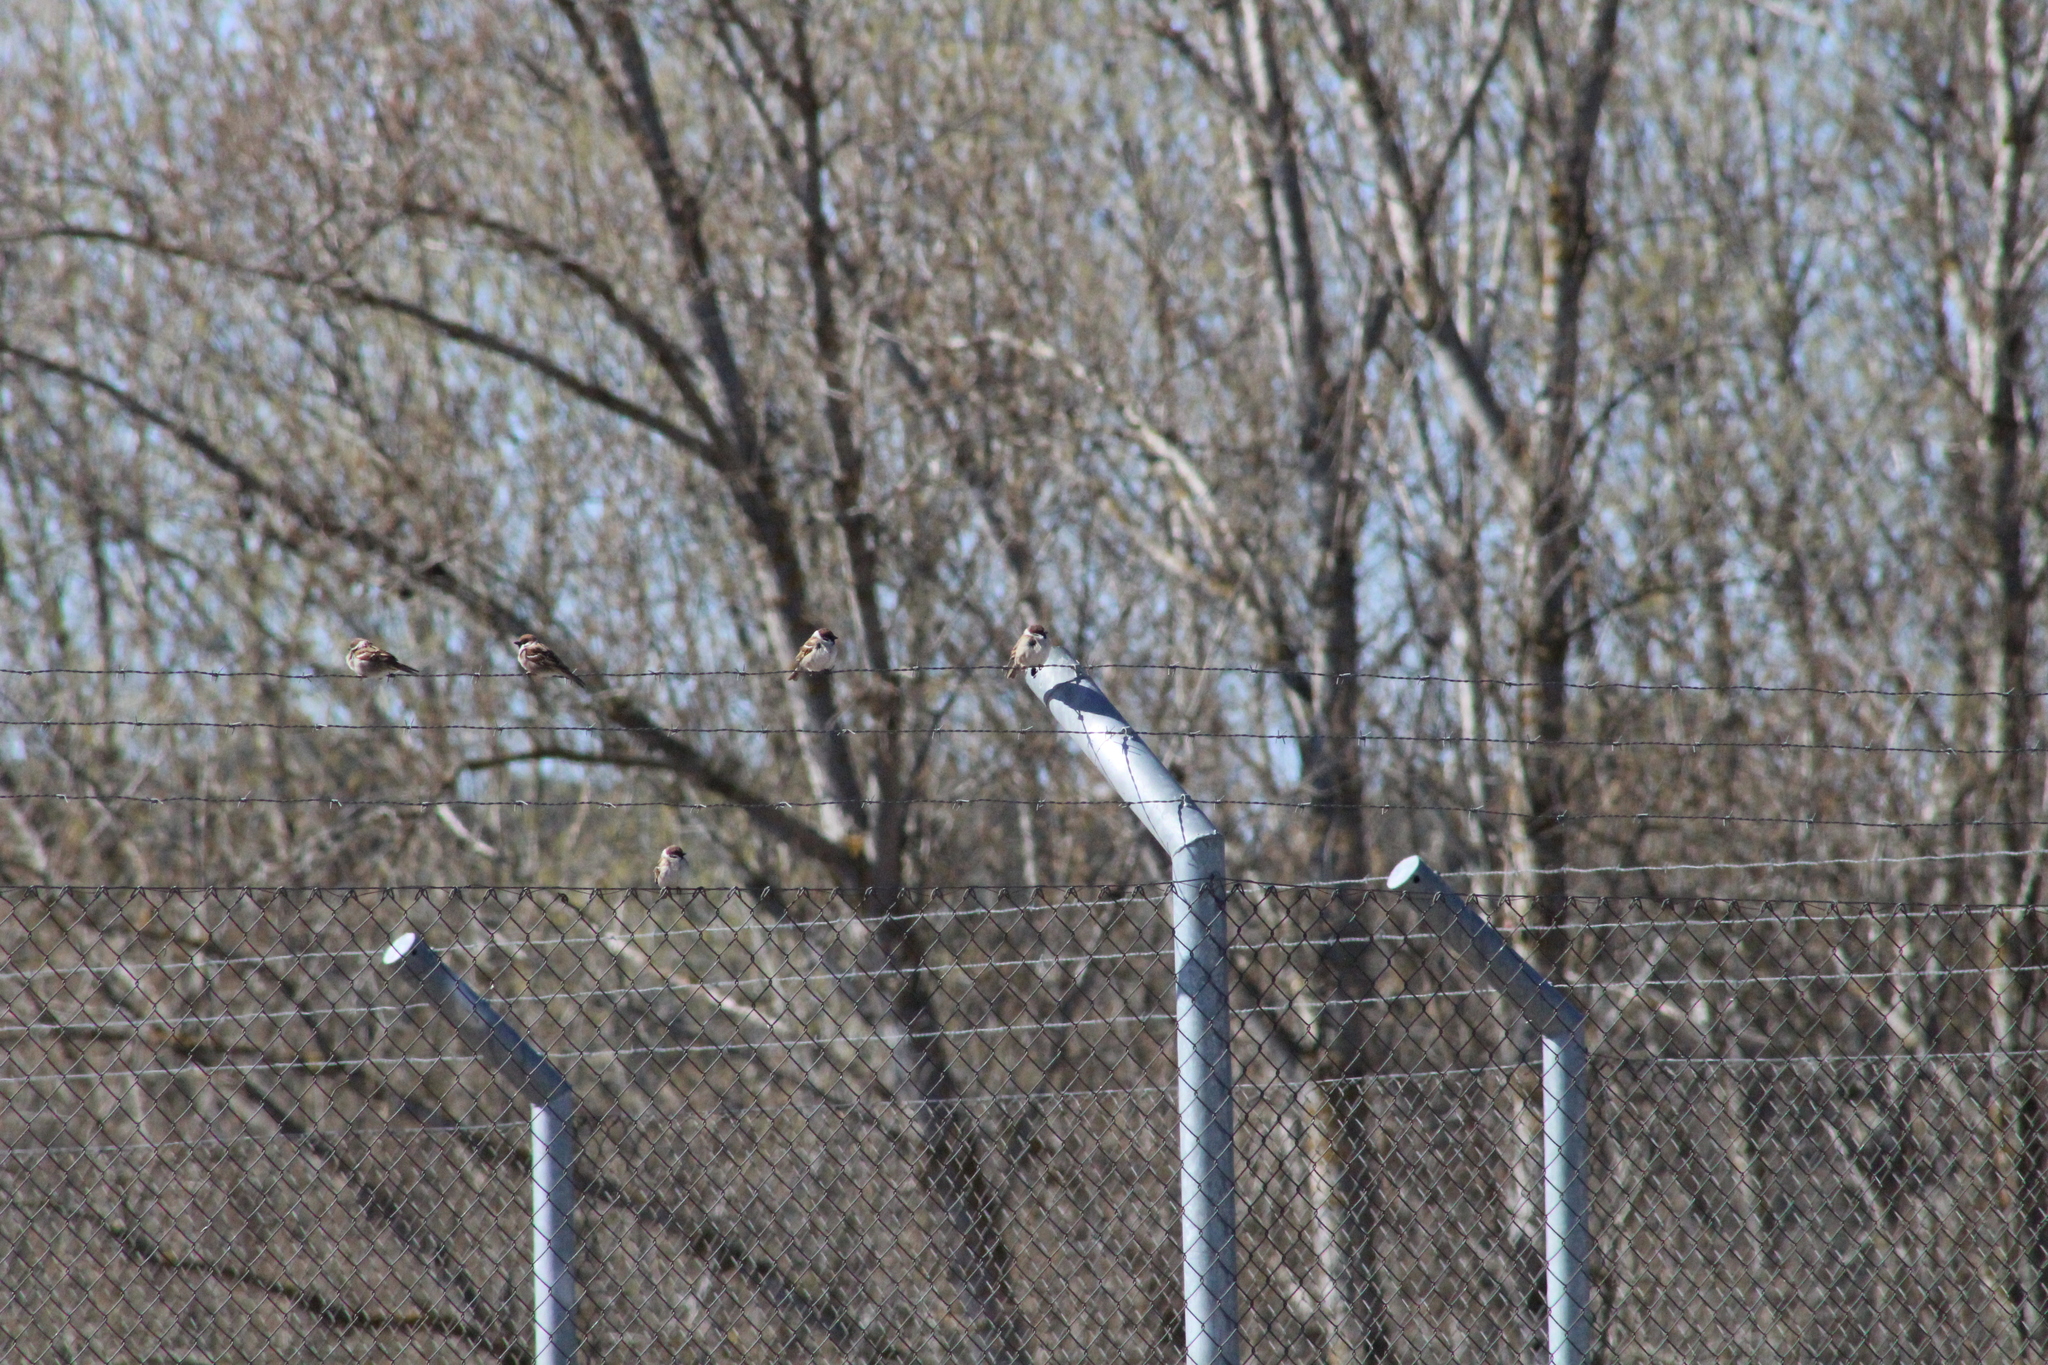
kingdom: Animalia
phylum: Chordata
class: Aves
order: Passeriformes
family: Passeridae
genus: Passer
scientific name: Passer hispaniolensis
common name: Spanish sparrow
